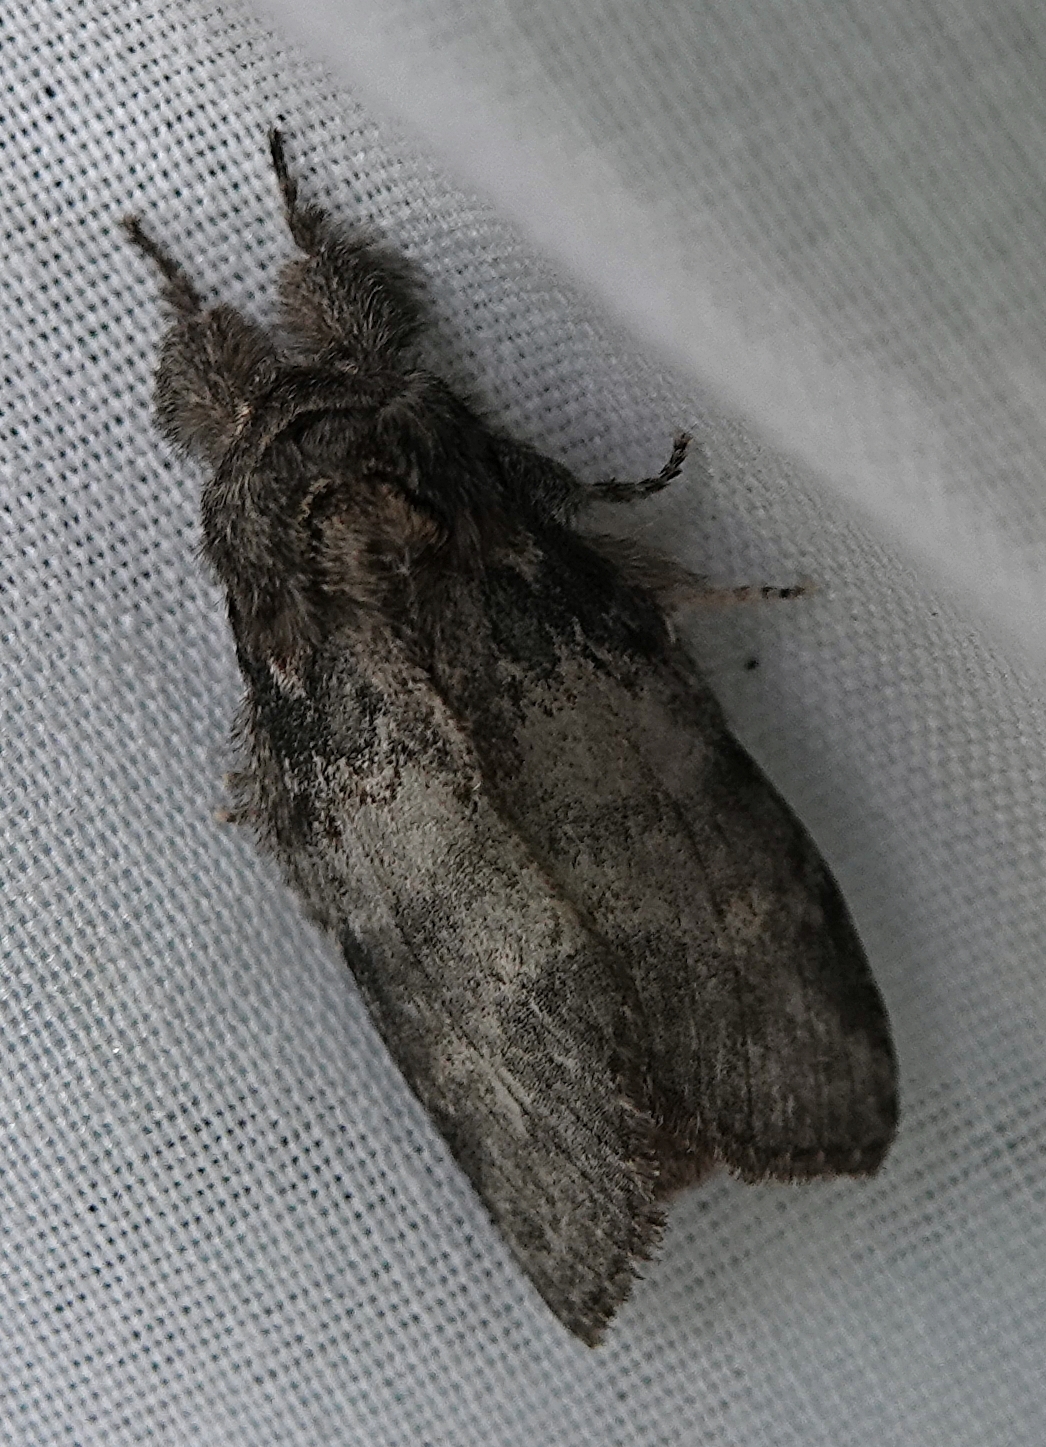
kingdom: Animalia
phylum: Arthropoda
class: Insecta
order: Lepidoptera
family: Notodontidae
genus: Peridea
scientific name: Peridea angulosa
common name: Angulose prominent
